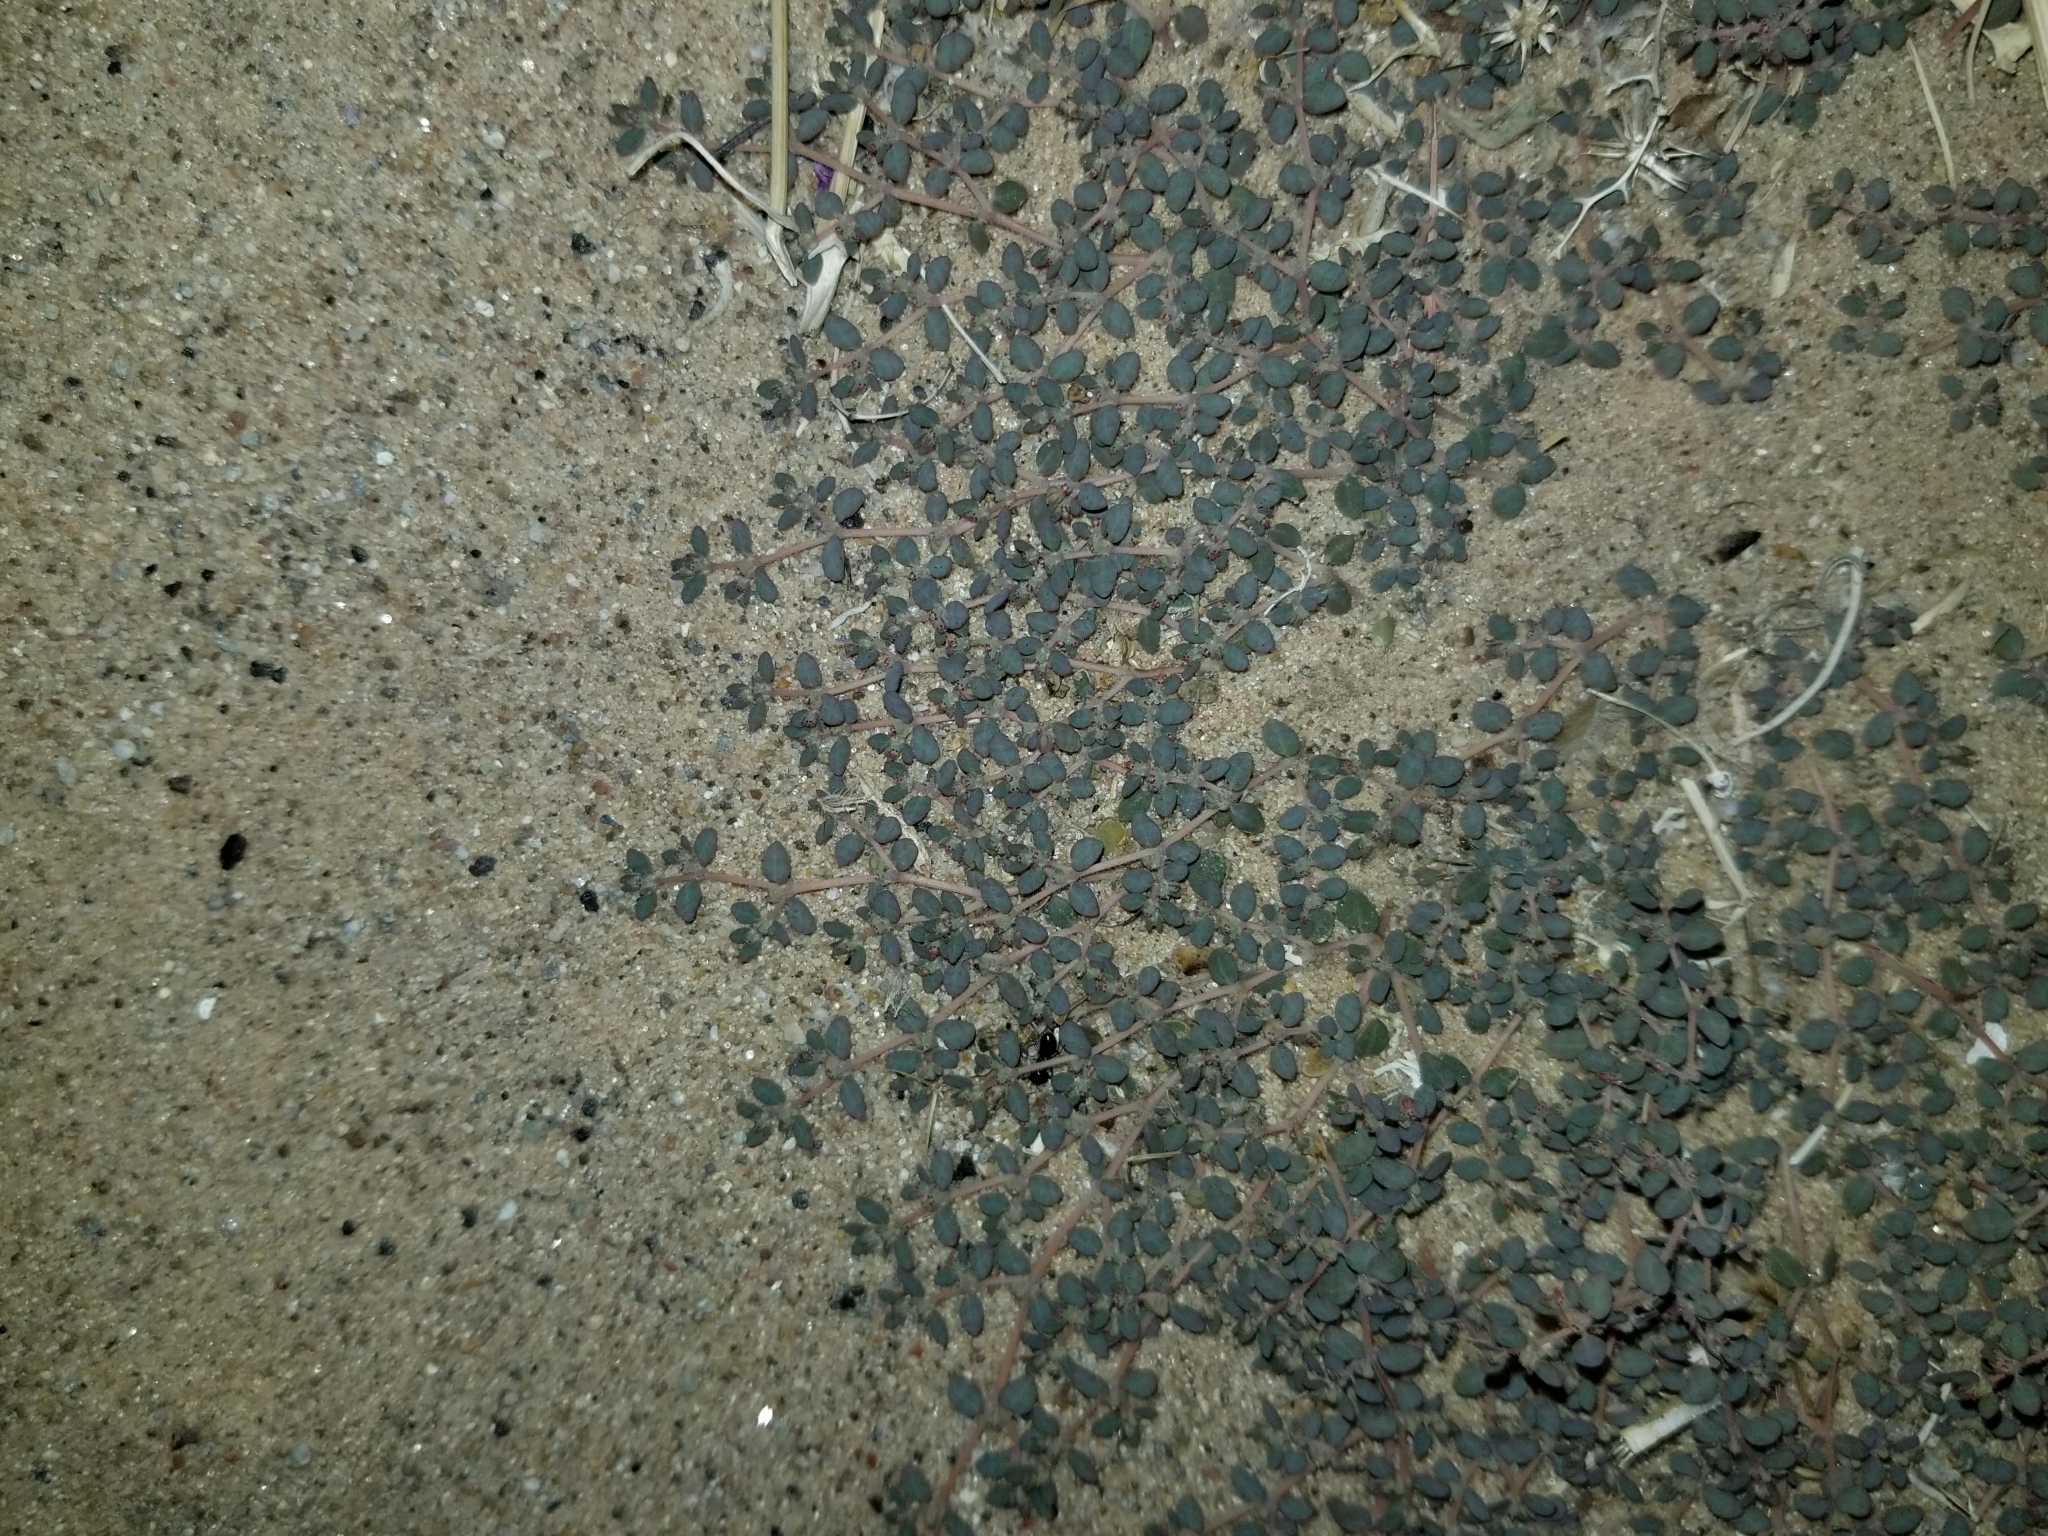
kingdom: Plantae
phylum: Tracheophyta
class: Magnoliopsida
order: Malpighiales
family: Euphorbiaceae
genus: Euphorbia
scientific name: Euphorbia micromera
